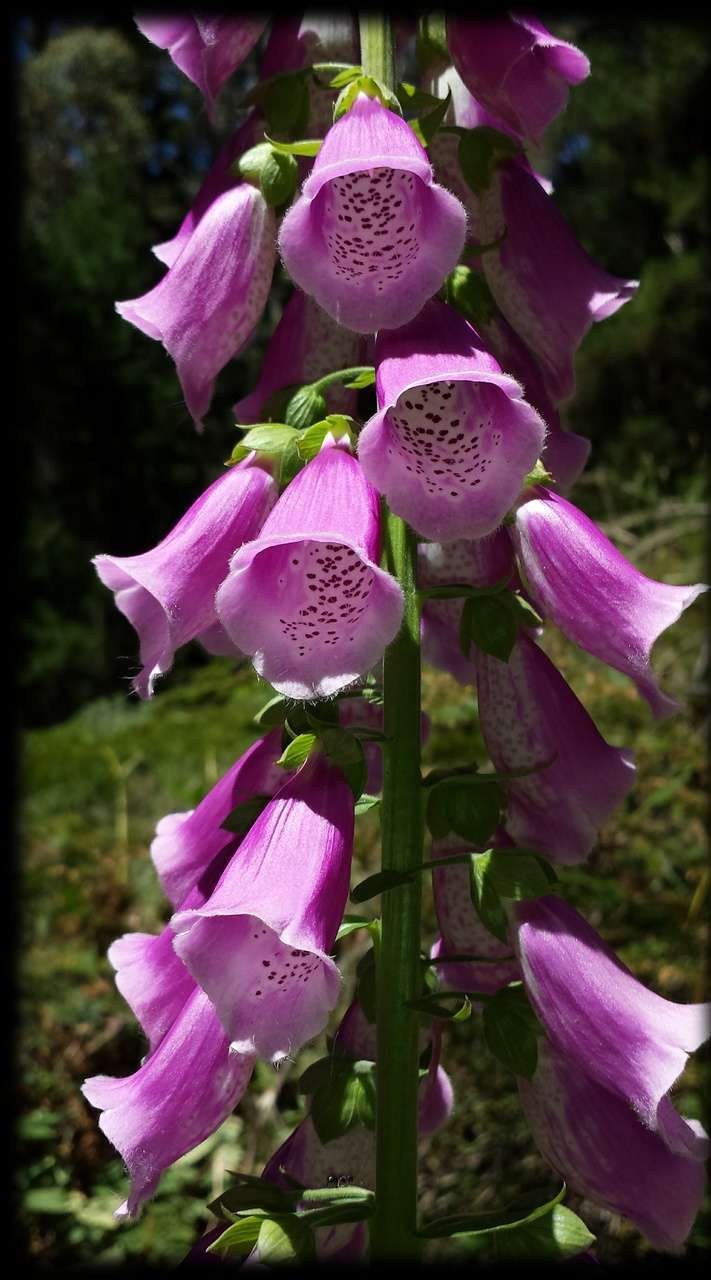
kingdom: Plantae
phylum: Tracheophyta
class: Magnoliopsida
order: Lamiales
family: Plantaginaceae
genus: Digitalis
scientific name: Digitalis purpurea
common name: Foxglove
